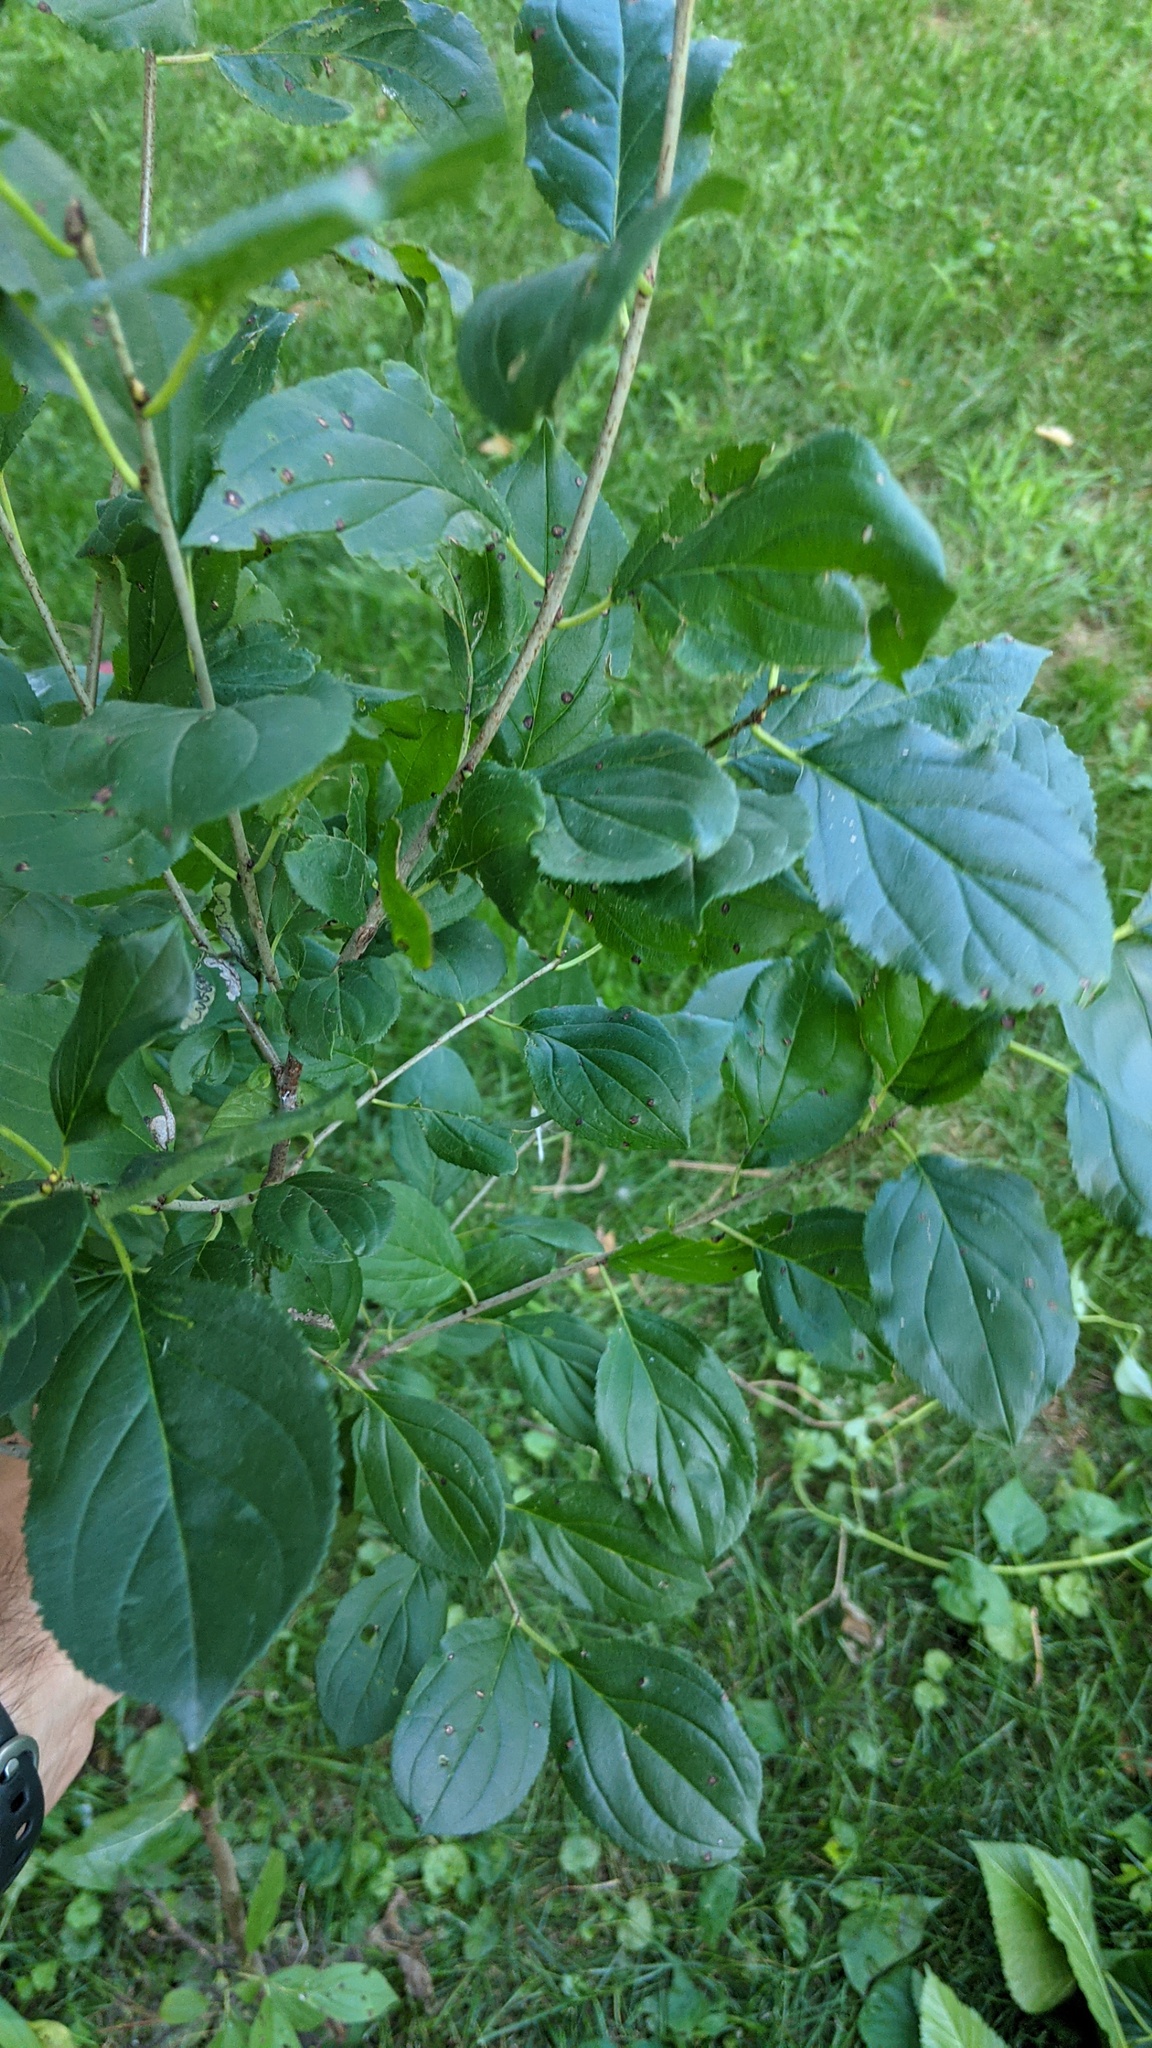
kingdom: Plantae
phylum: Tracheophyta
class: Magnoliopsida
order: Rosales
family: Rhamnaceae
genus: Rhamnus
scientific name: Rhamnus cathartica
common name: Common buckthorn
